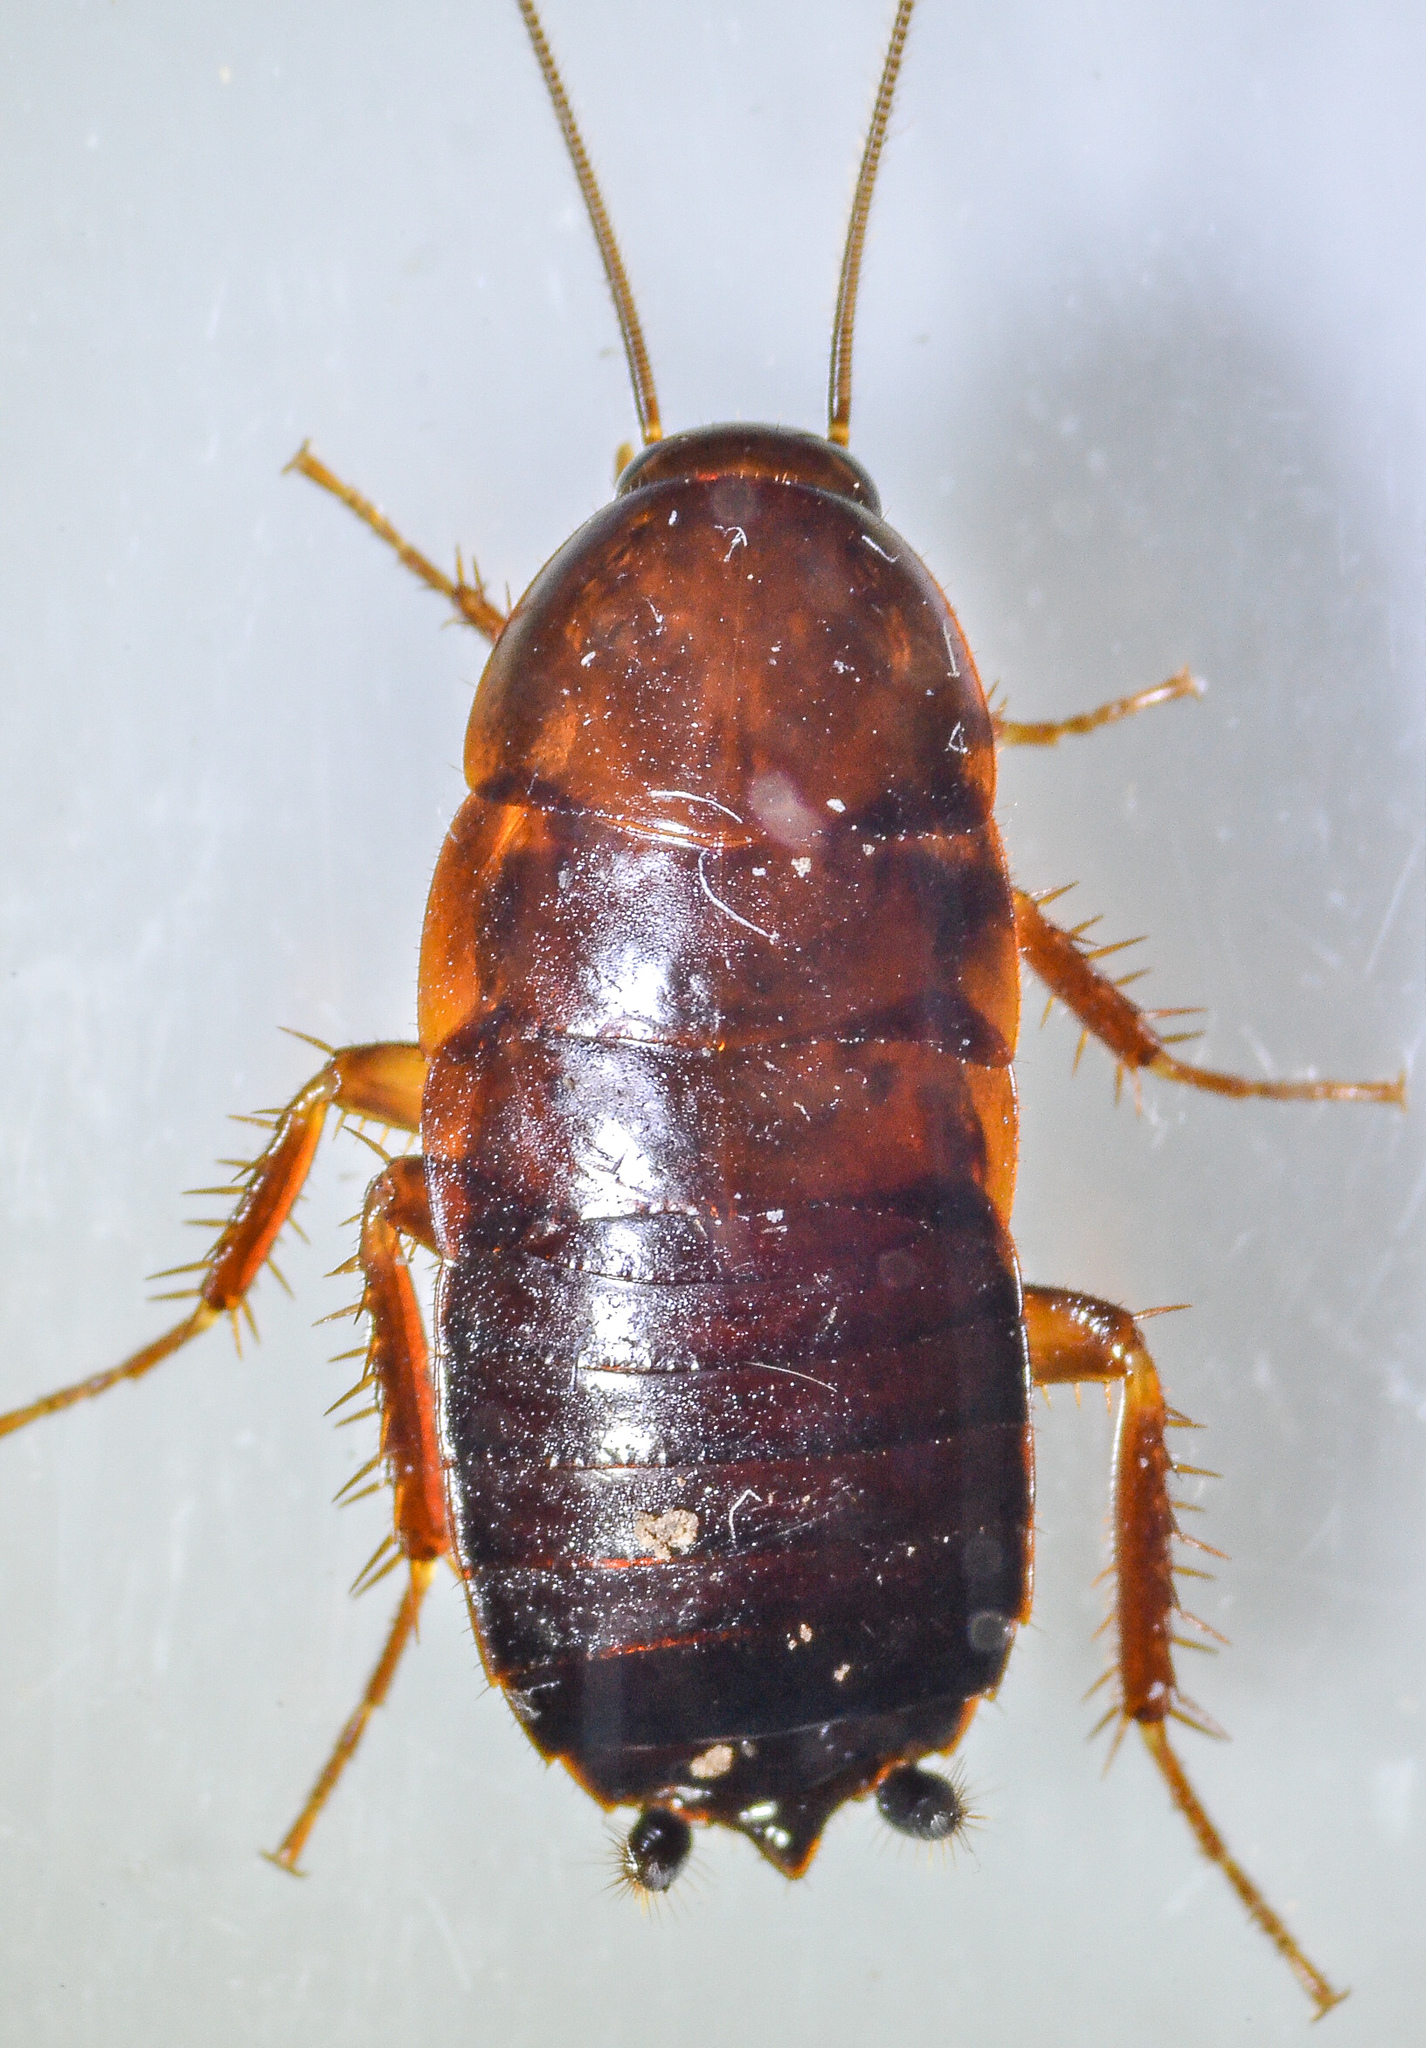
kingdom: Animalia
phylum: Arthropoda
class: Insecta
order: Blattodea
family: Ectobiidae
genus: Parcoblatta
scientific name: Parcoblatta americana
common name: Western wood cockroach
